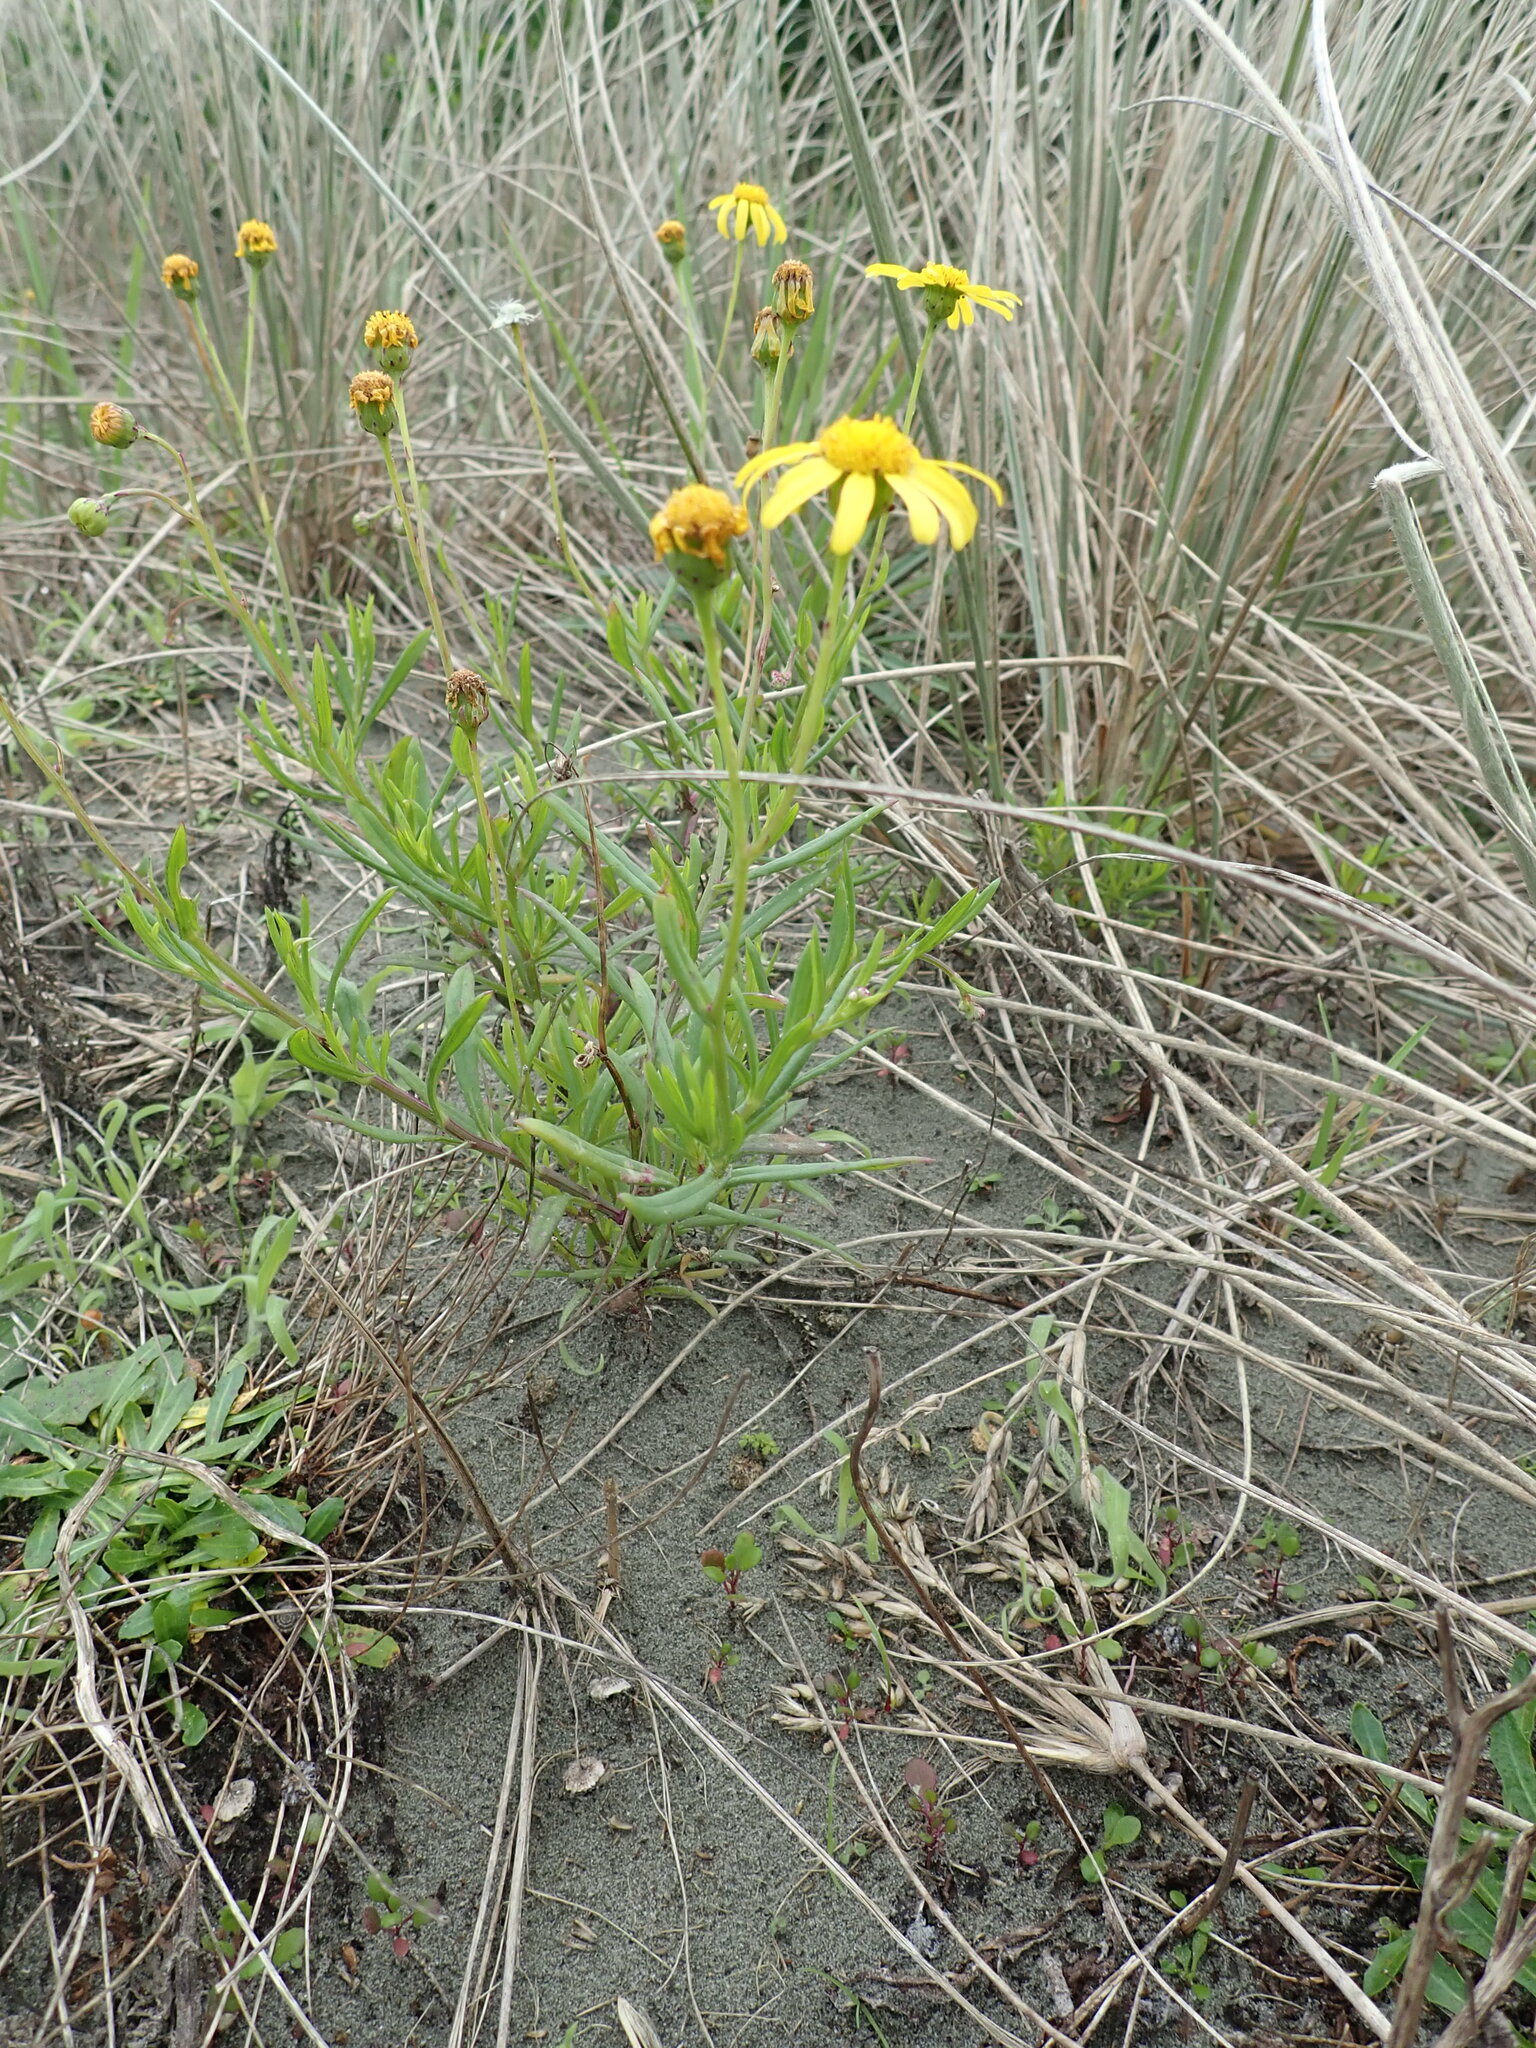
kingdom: Plantae
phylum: Tracheophyta
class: Magnoliopsida
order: Asterales
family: Asteraceae
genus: Senecio
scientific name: Senecio skirrhodon
